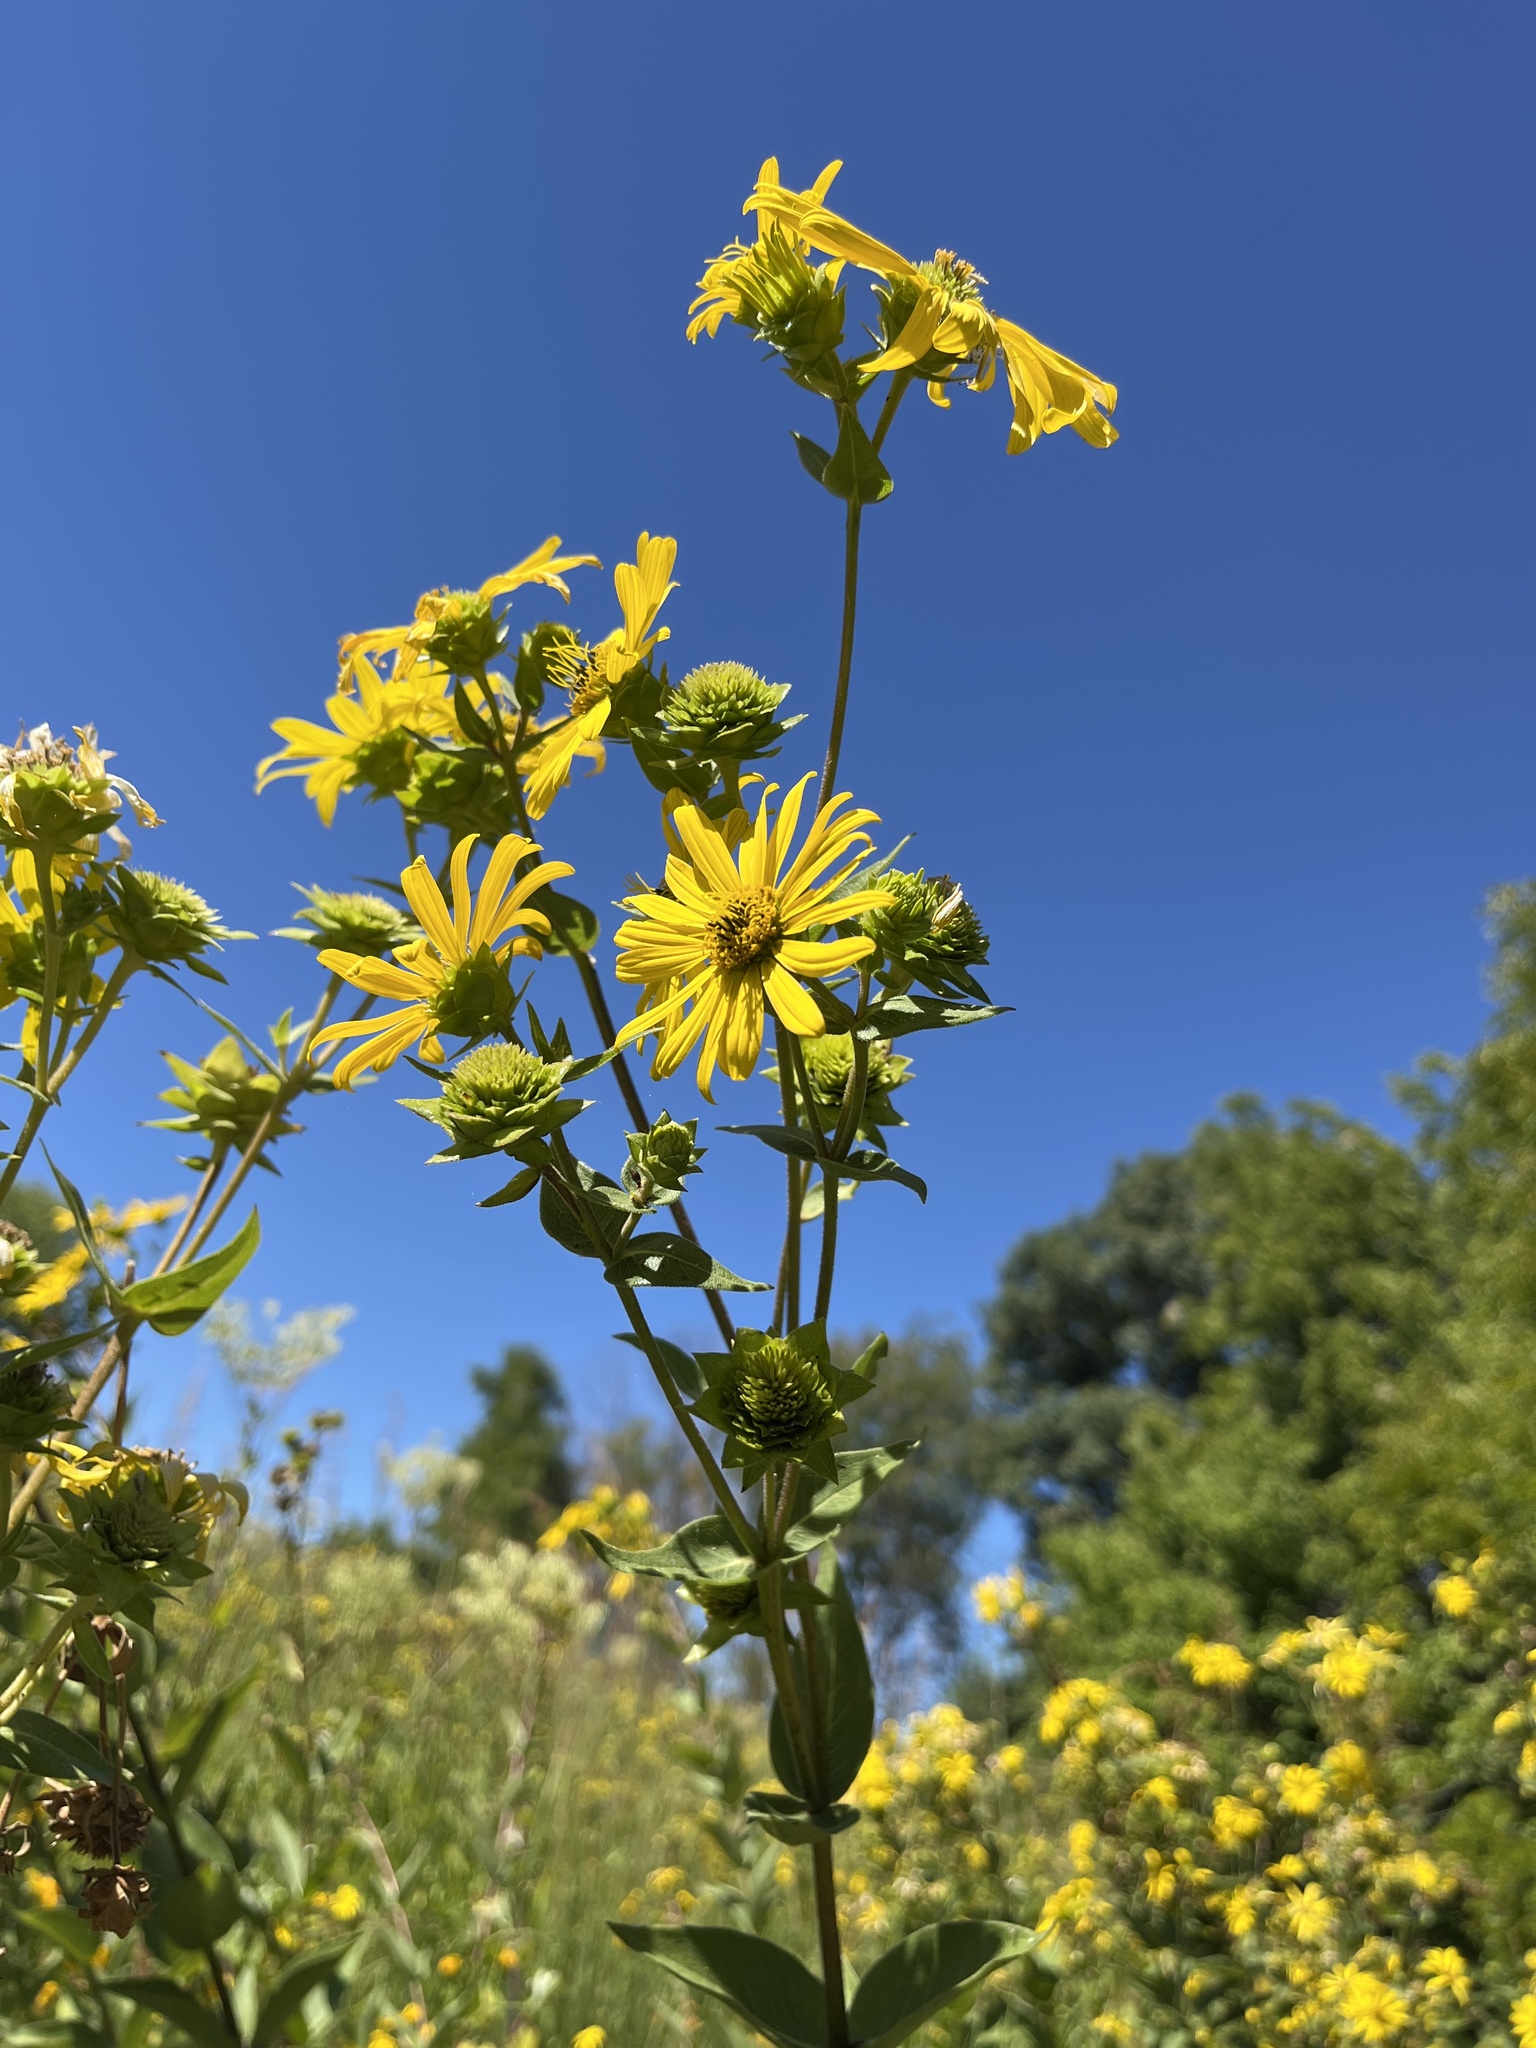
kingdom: Plantae
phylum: Tracheophyta
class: Magnoliopsida
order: Asterales
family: Asteraceae
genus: Silphium
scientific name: Silphium integrifolium
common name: Whole-leaf rosinweed
